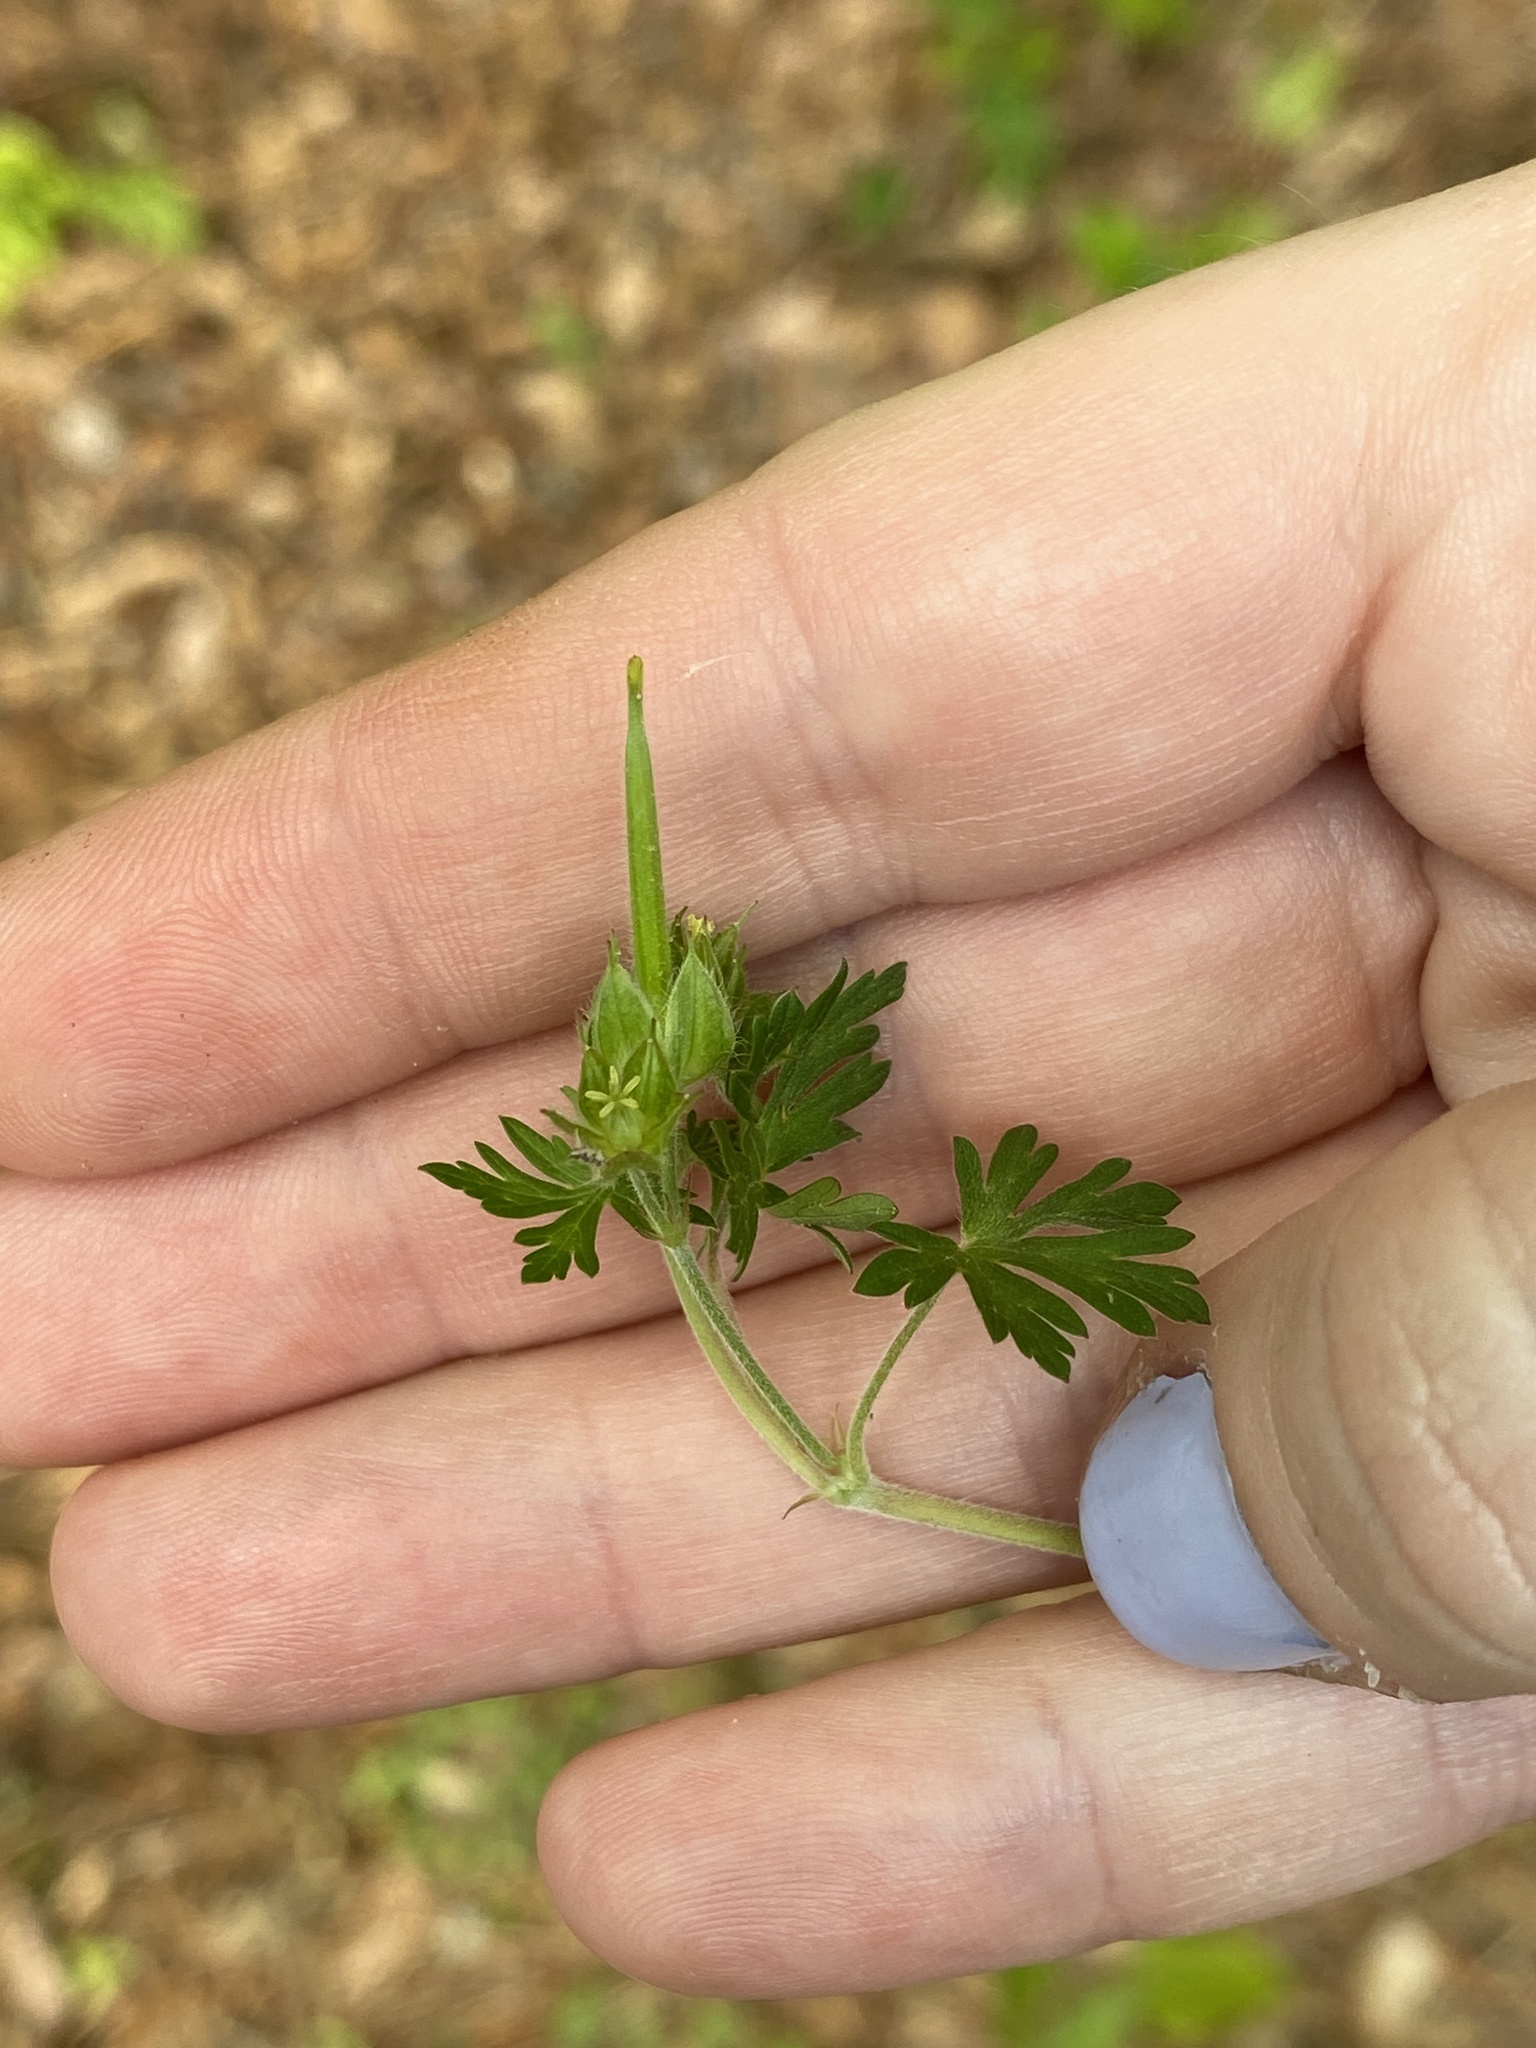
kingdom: Plantae
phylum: Tracheophyta
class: Magnoliopsida
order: Geraniales
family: Geraniaceae
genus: Geranium
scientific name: Geranium carolinianum
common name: Carolina crane's-bill
